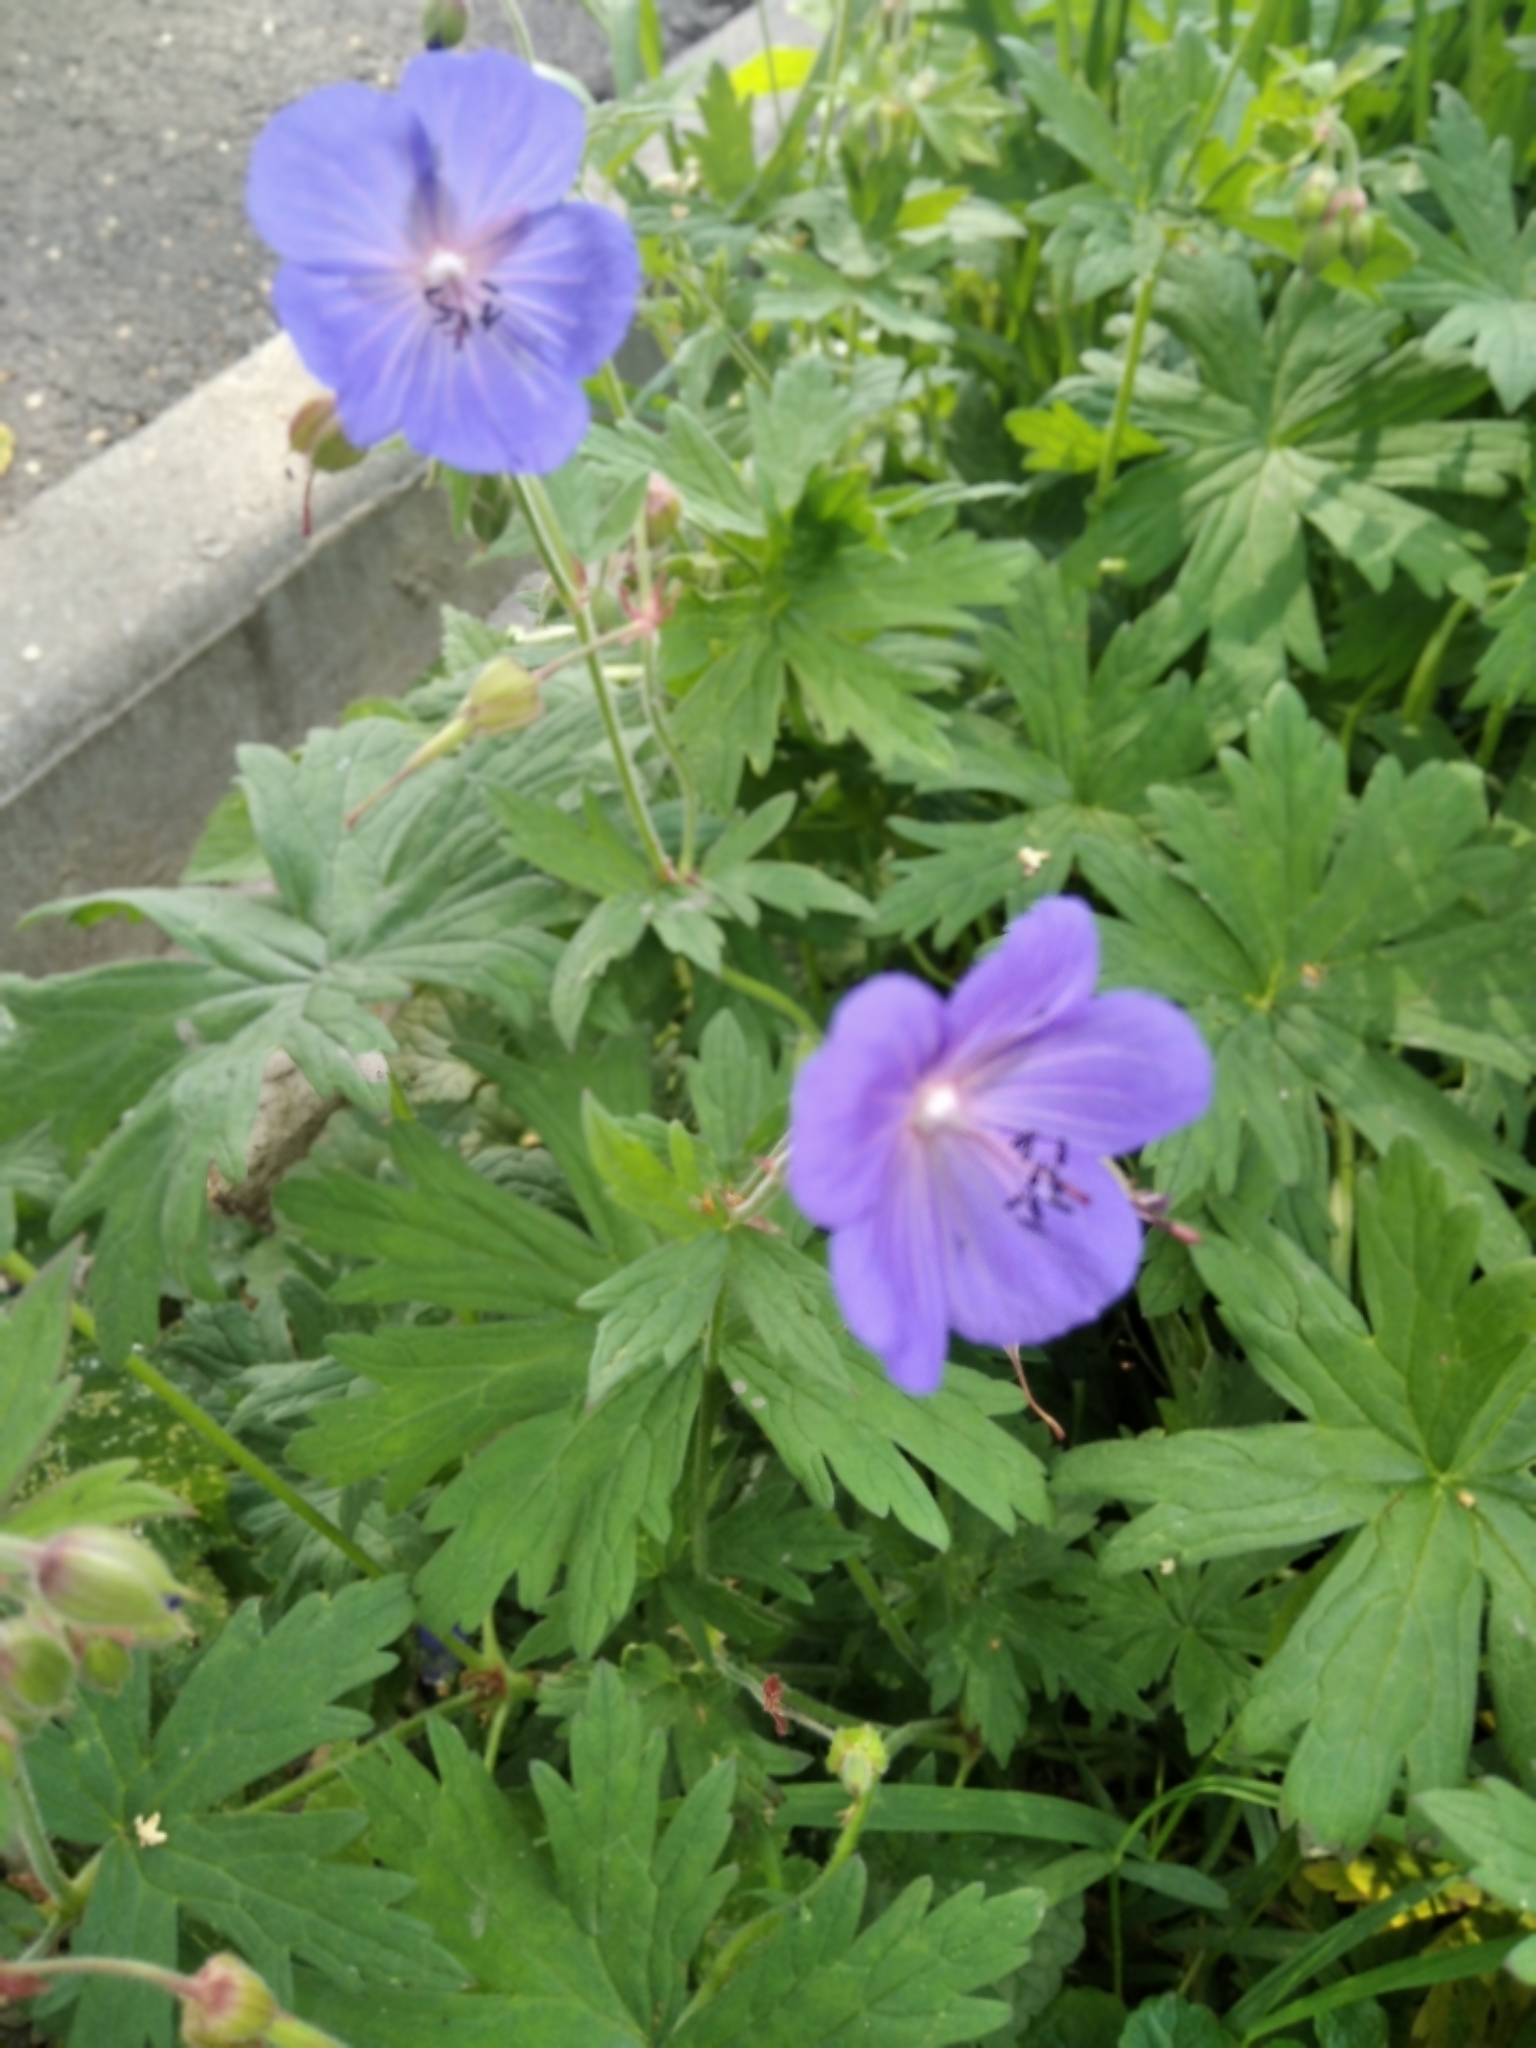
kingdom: Plantae
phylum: Tracheophyta
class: Magnoliopsida
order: Geraniales
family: Geraniaceae
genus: Geranium
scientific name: Geranium pratense
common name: Meadow crane's-bill
